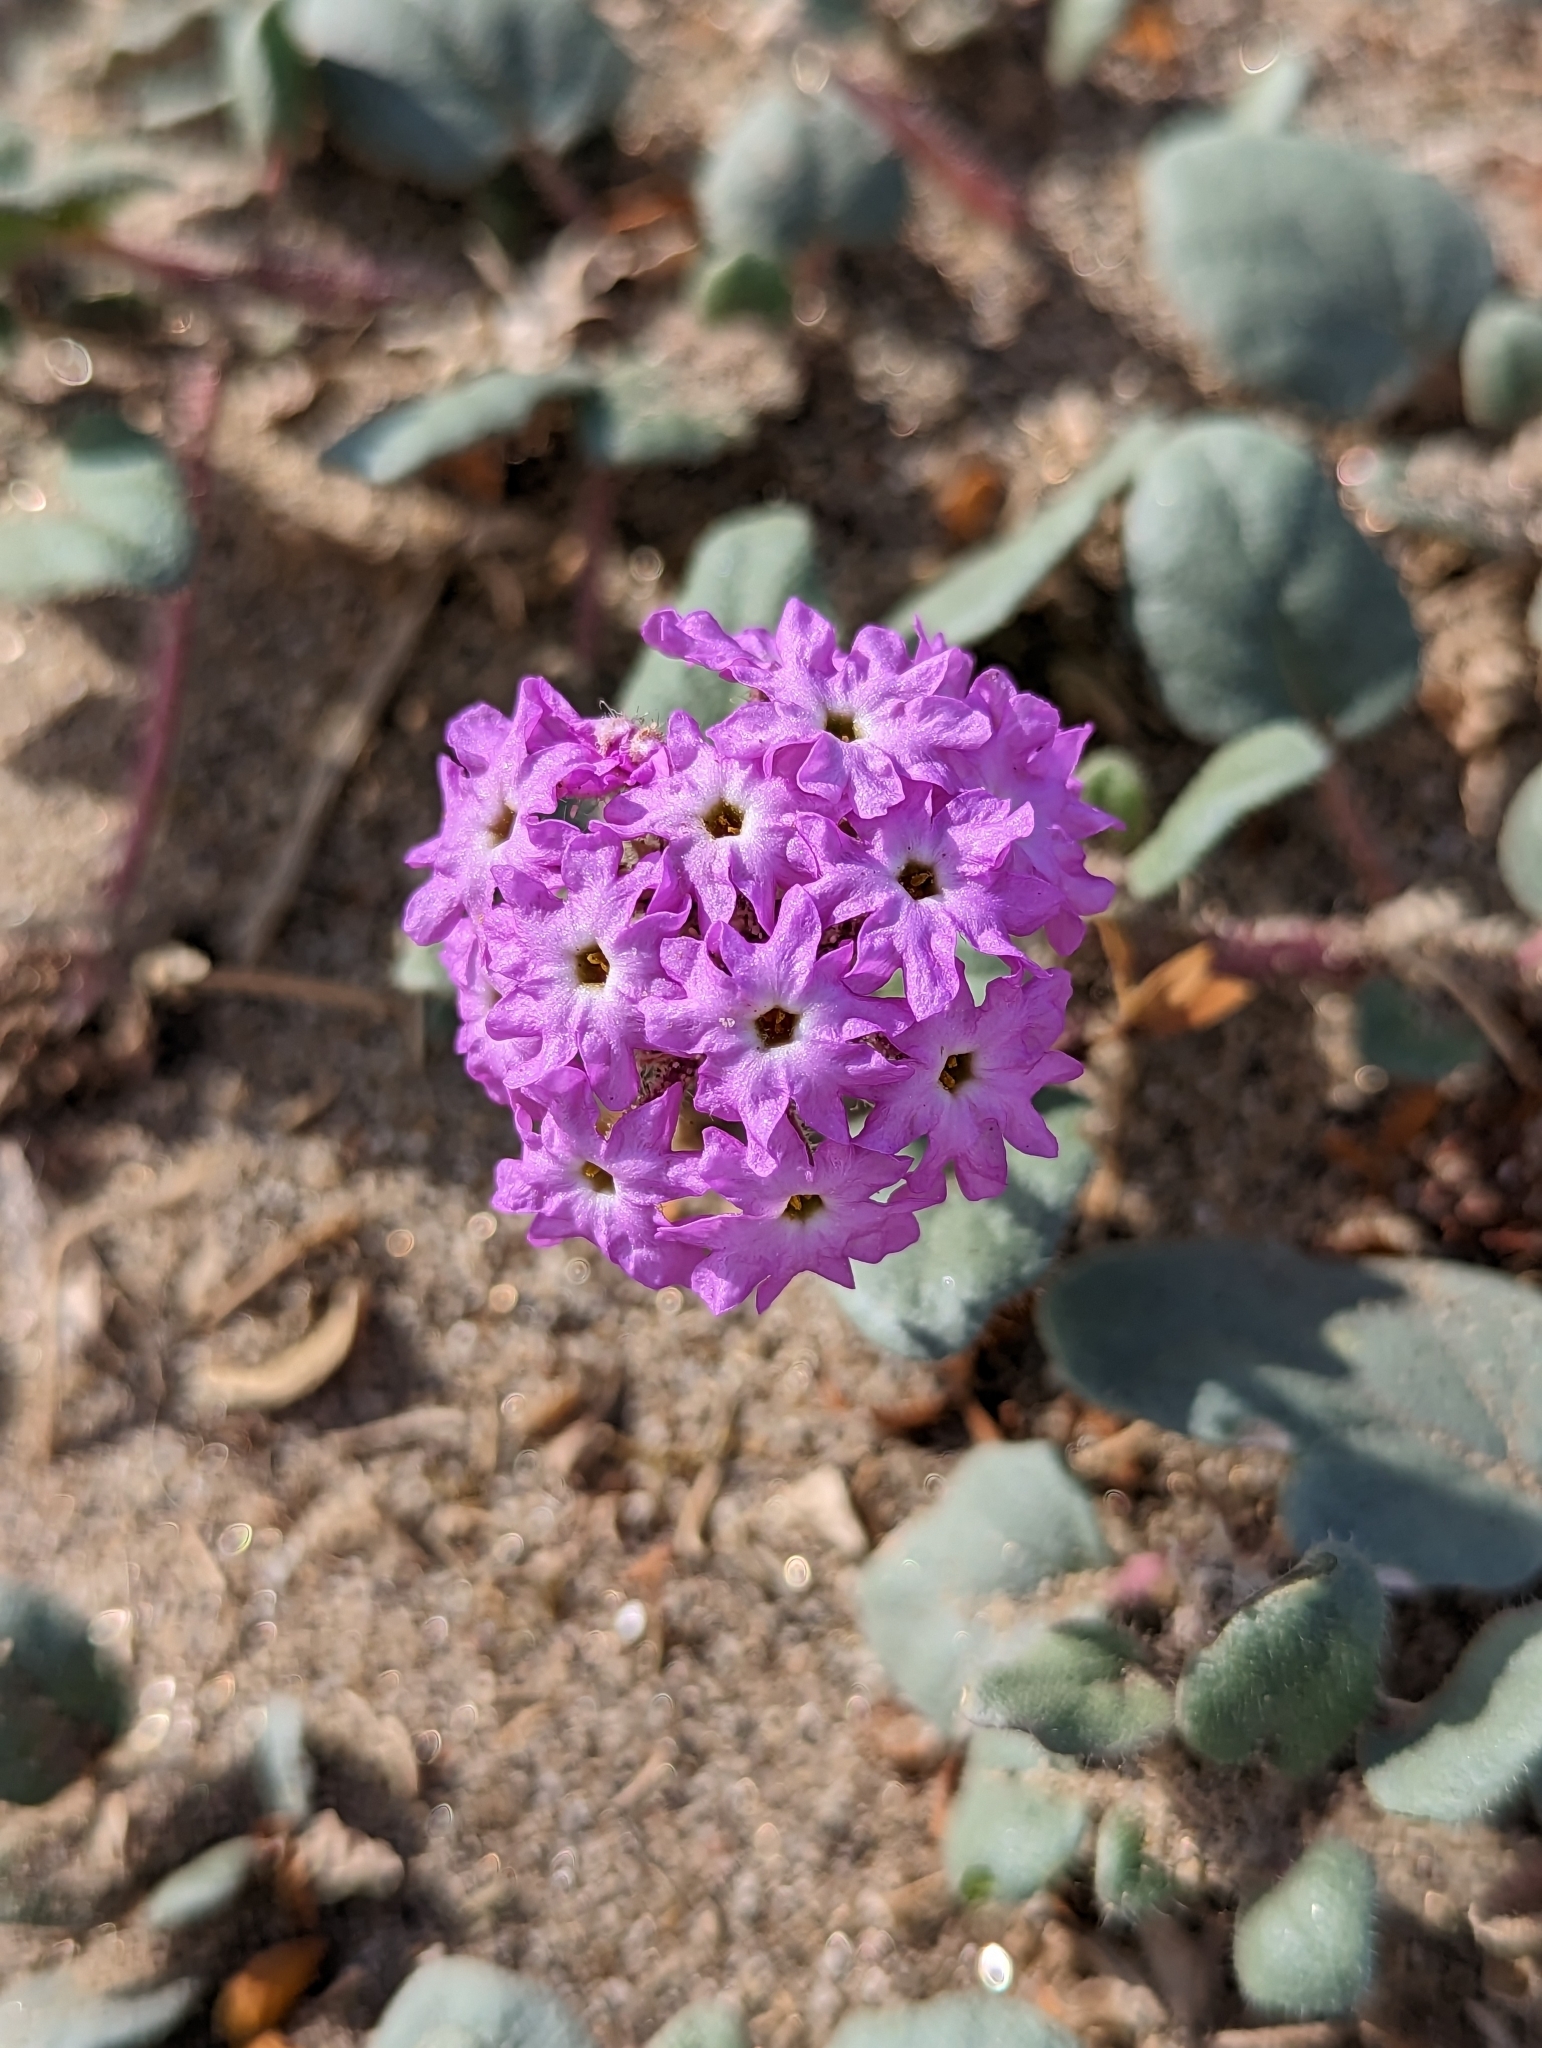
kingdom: Plantae
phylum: Tracheophyta
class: Magnoliopsida
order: Caryophyllales
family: Nyctaginaceae
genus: Abronia
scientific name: Abronia villosa
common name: Desert sand-verbena
